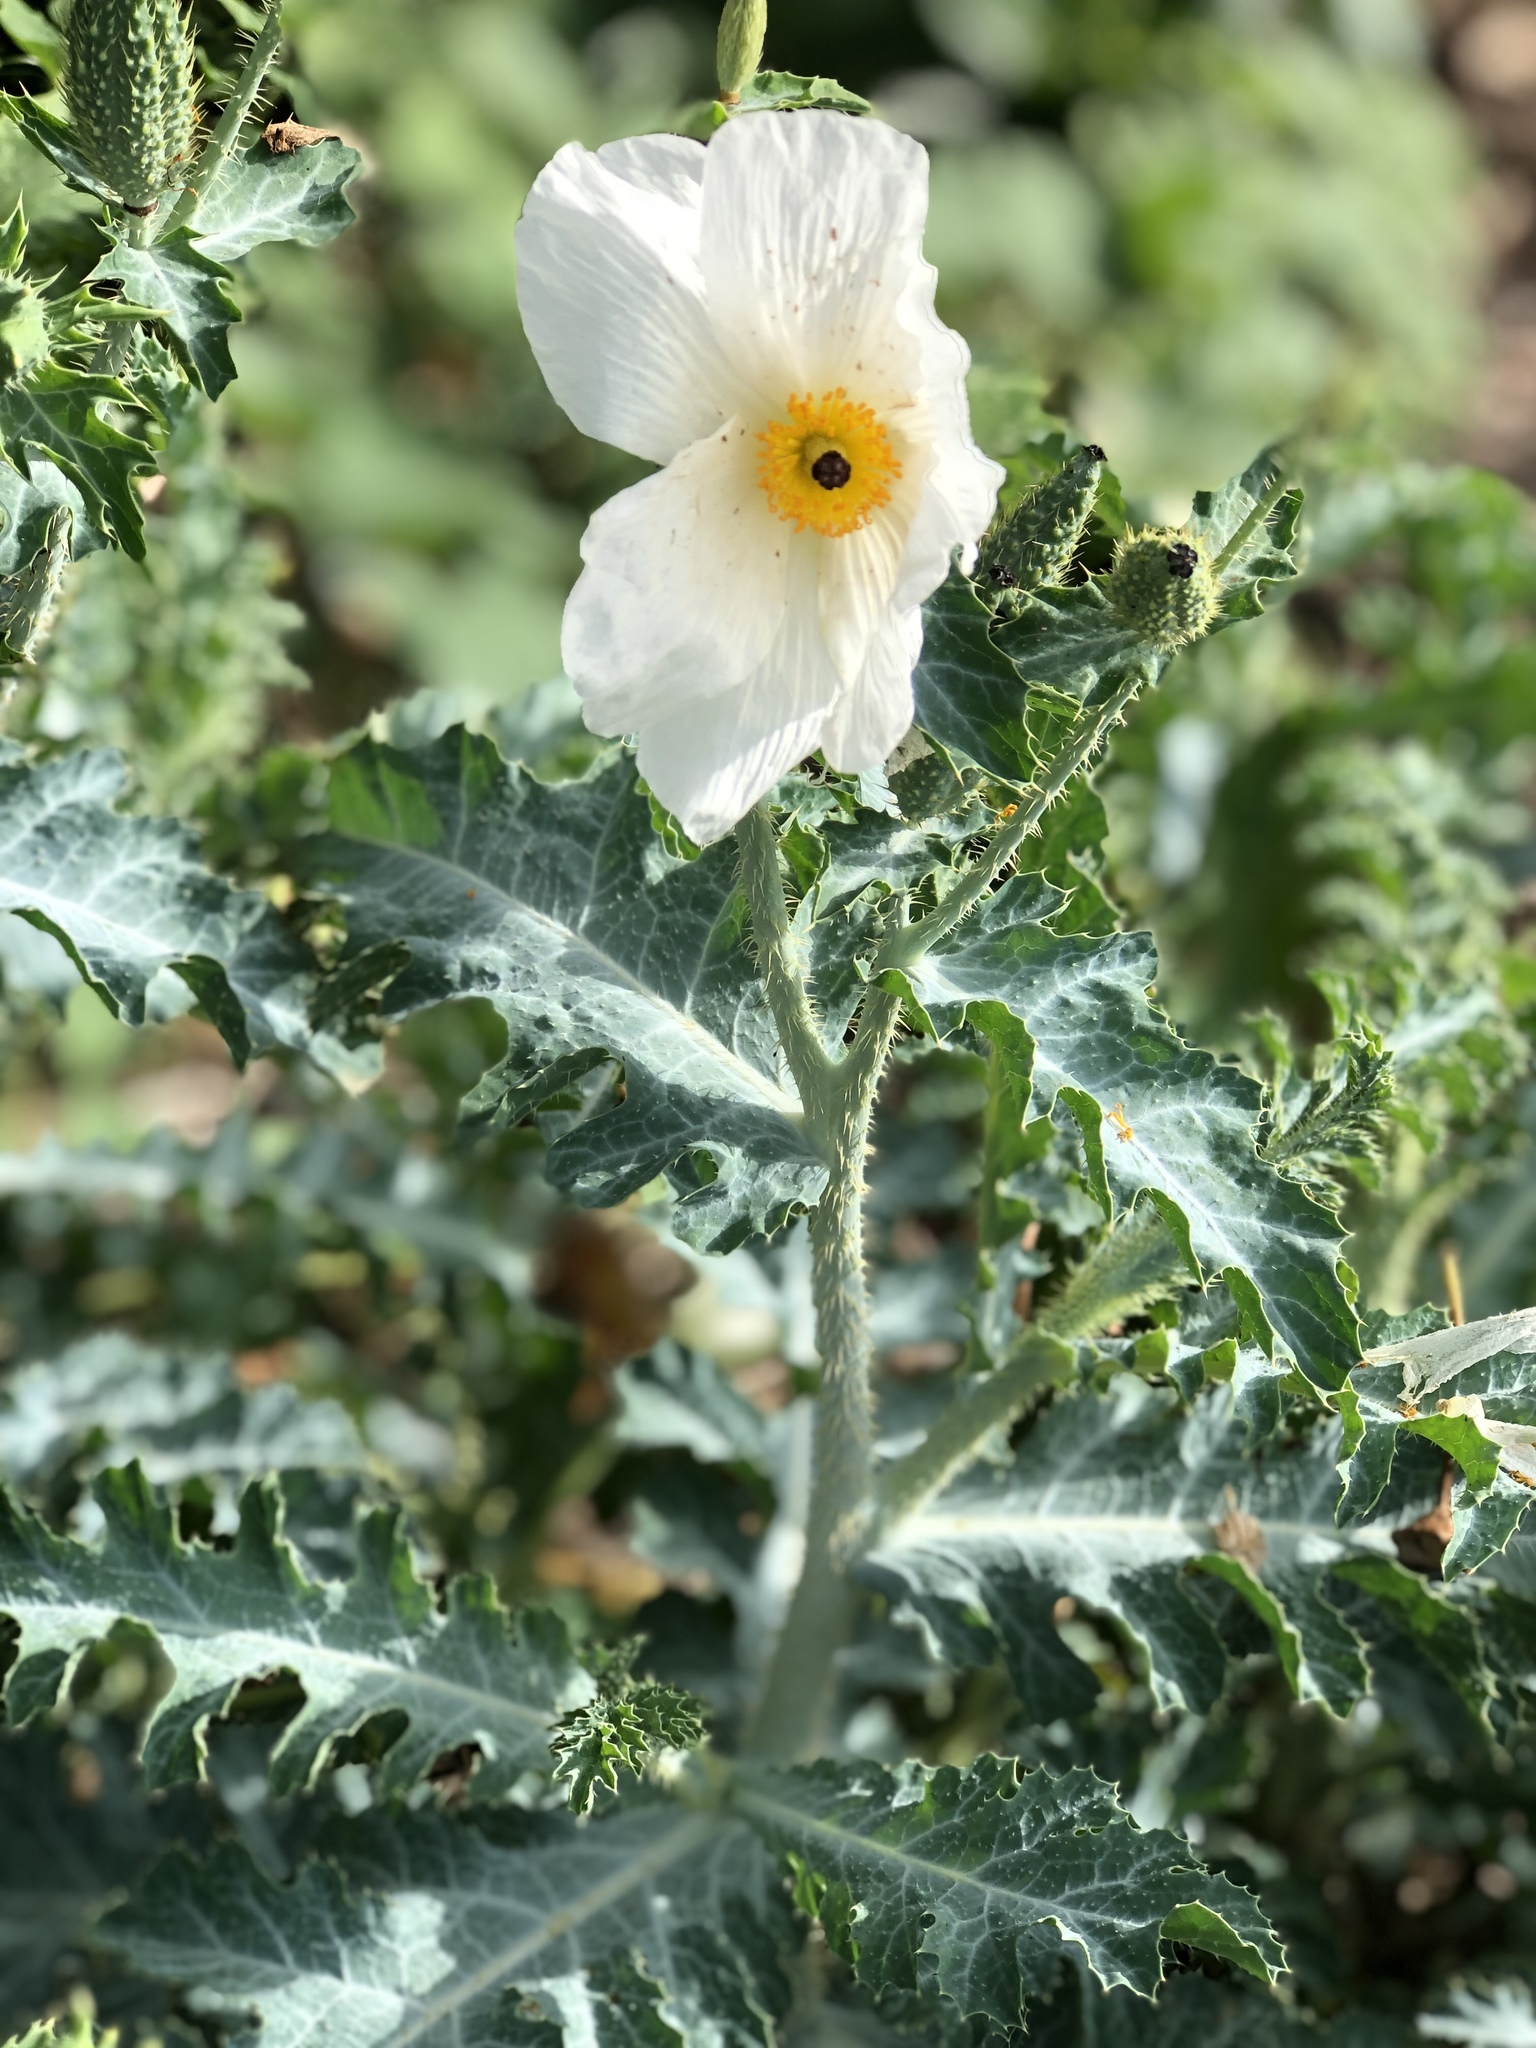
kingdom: Plantae
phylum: Tracheophyta
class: Magnoliopsida
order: Ranunculales
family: Papaveraceae
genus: Argemone
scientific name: Argemone glauca
